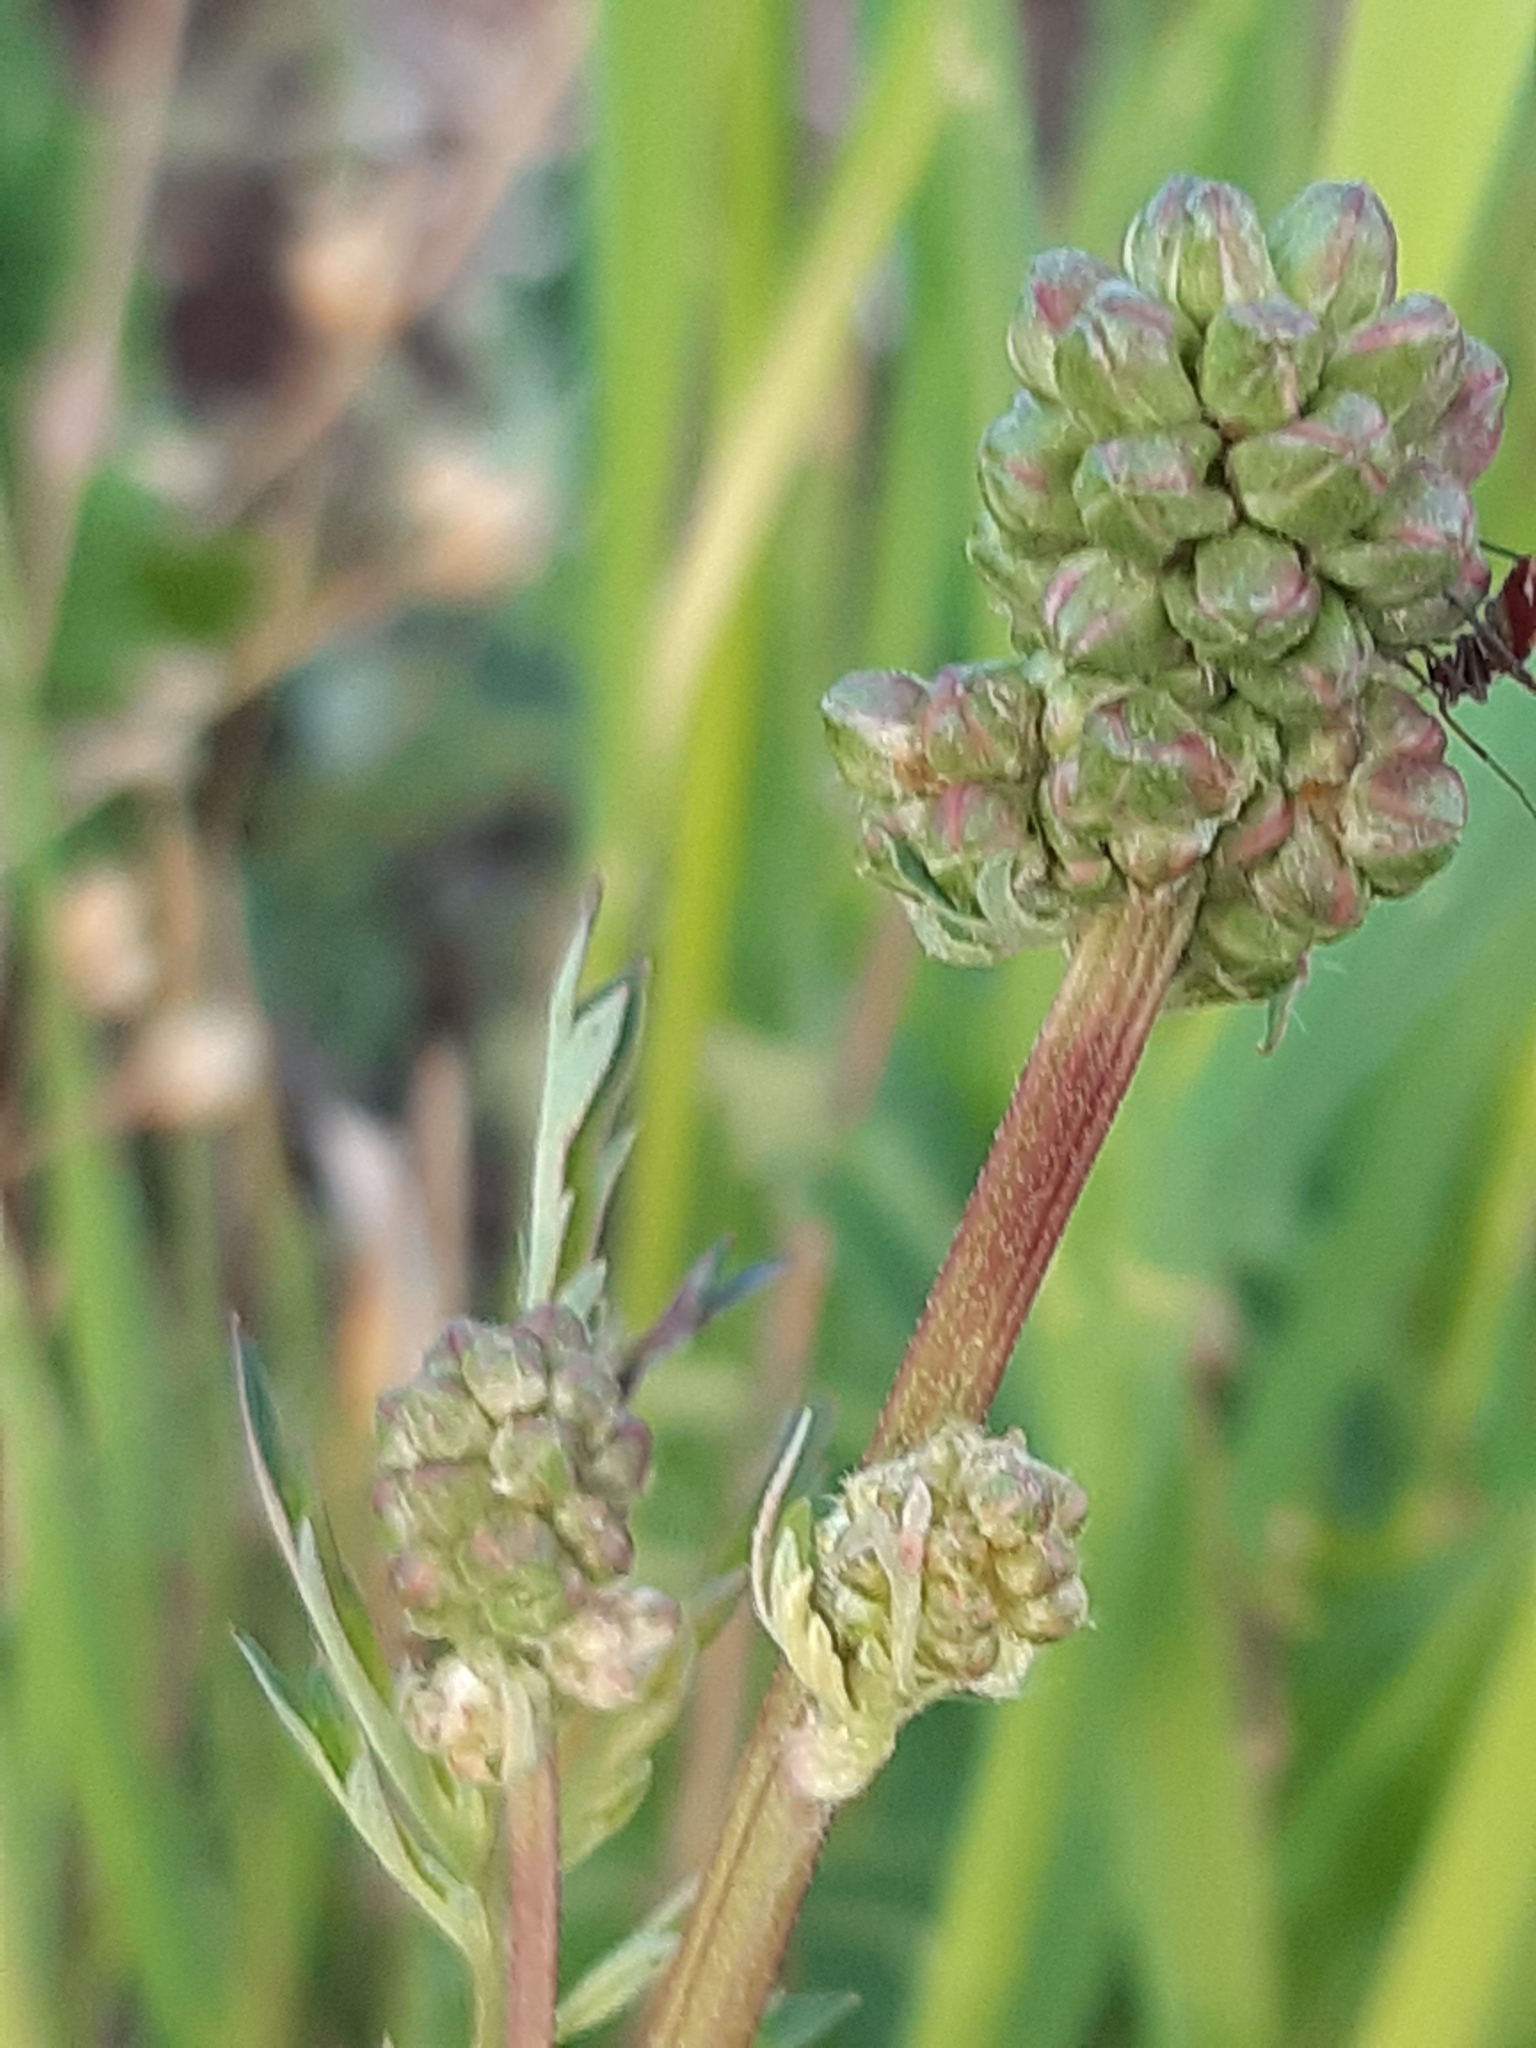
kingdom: Plantae
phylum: Tracheophyta
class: Magnoliopsida
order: Rosales
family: Rosaceae
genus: Poterium
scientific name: Poterium sanguisorba
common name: Salad burnet
